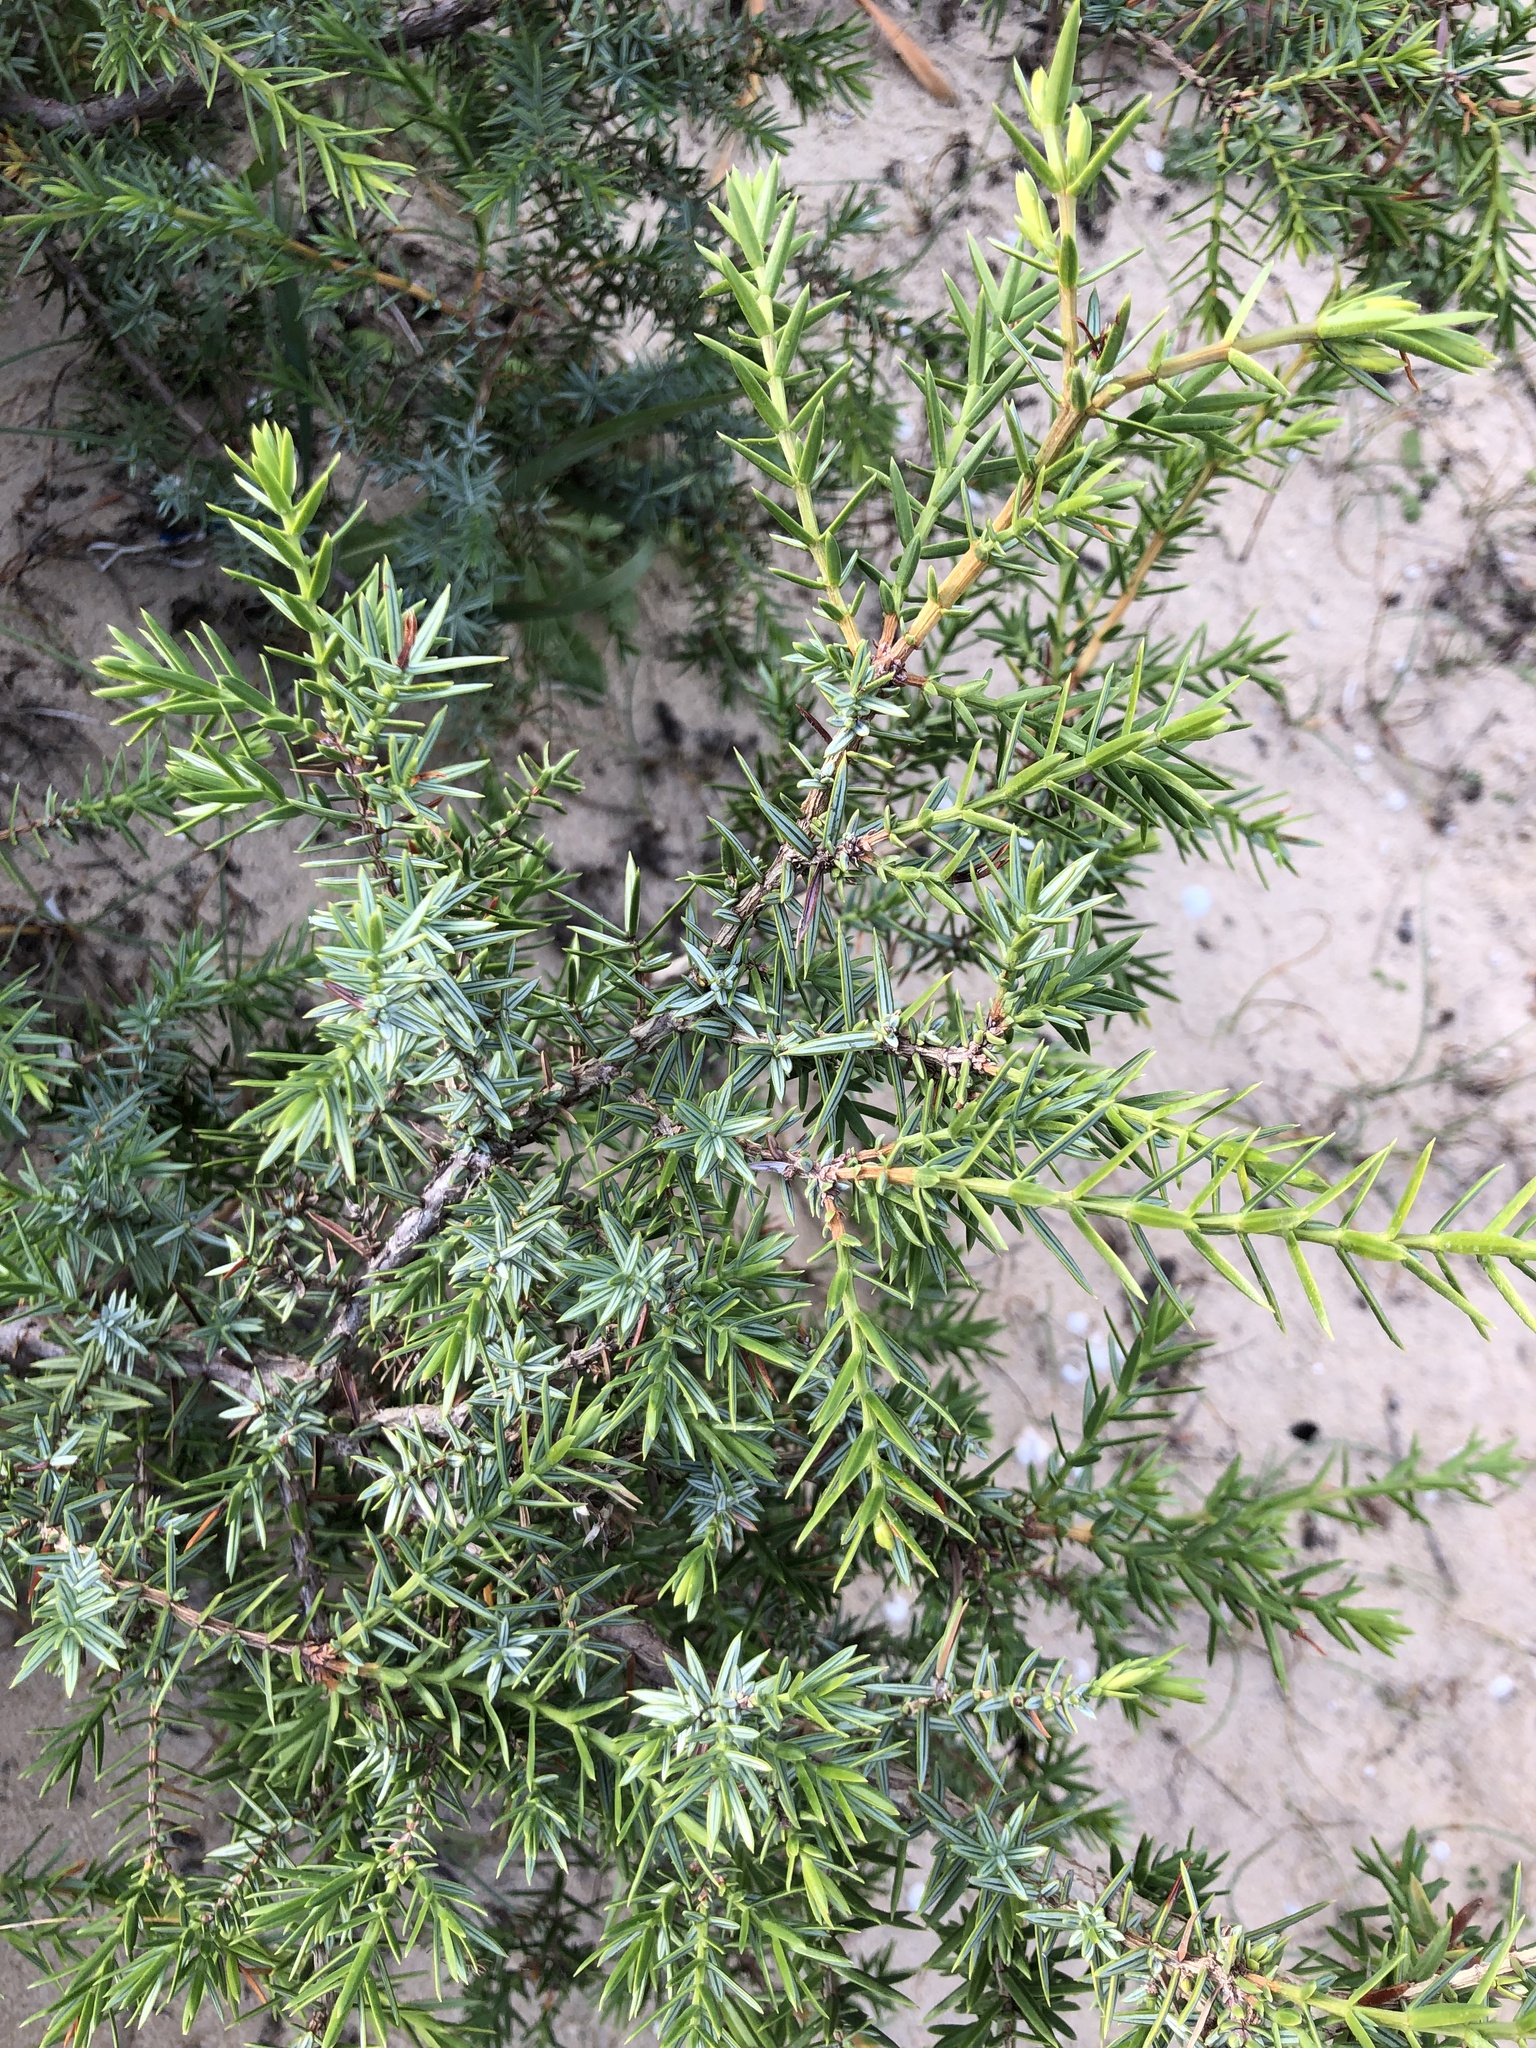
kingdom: Plantae
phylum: Tracheophyta
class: Pinopsida
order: Pinales
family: Cupressaceae
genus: Juniperus
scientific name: Juniperus oxycedrus
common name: Prickly juniper
